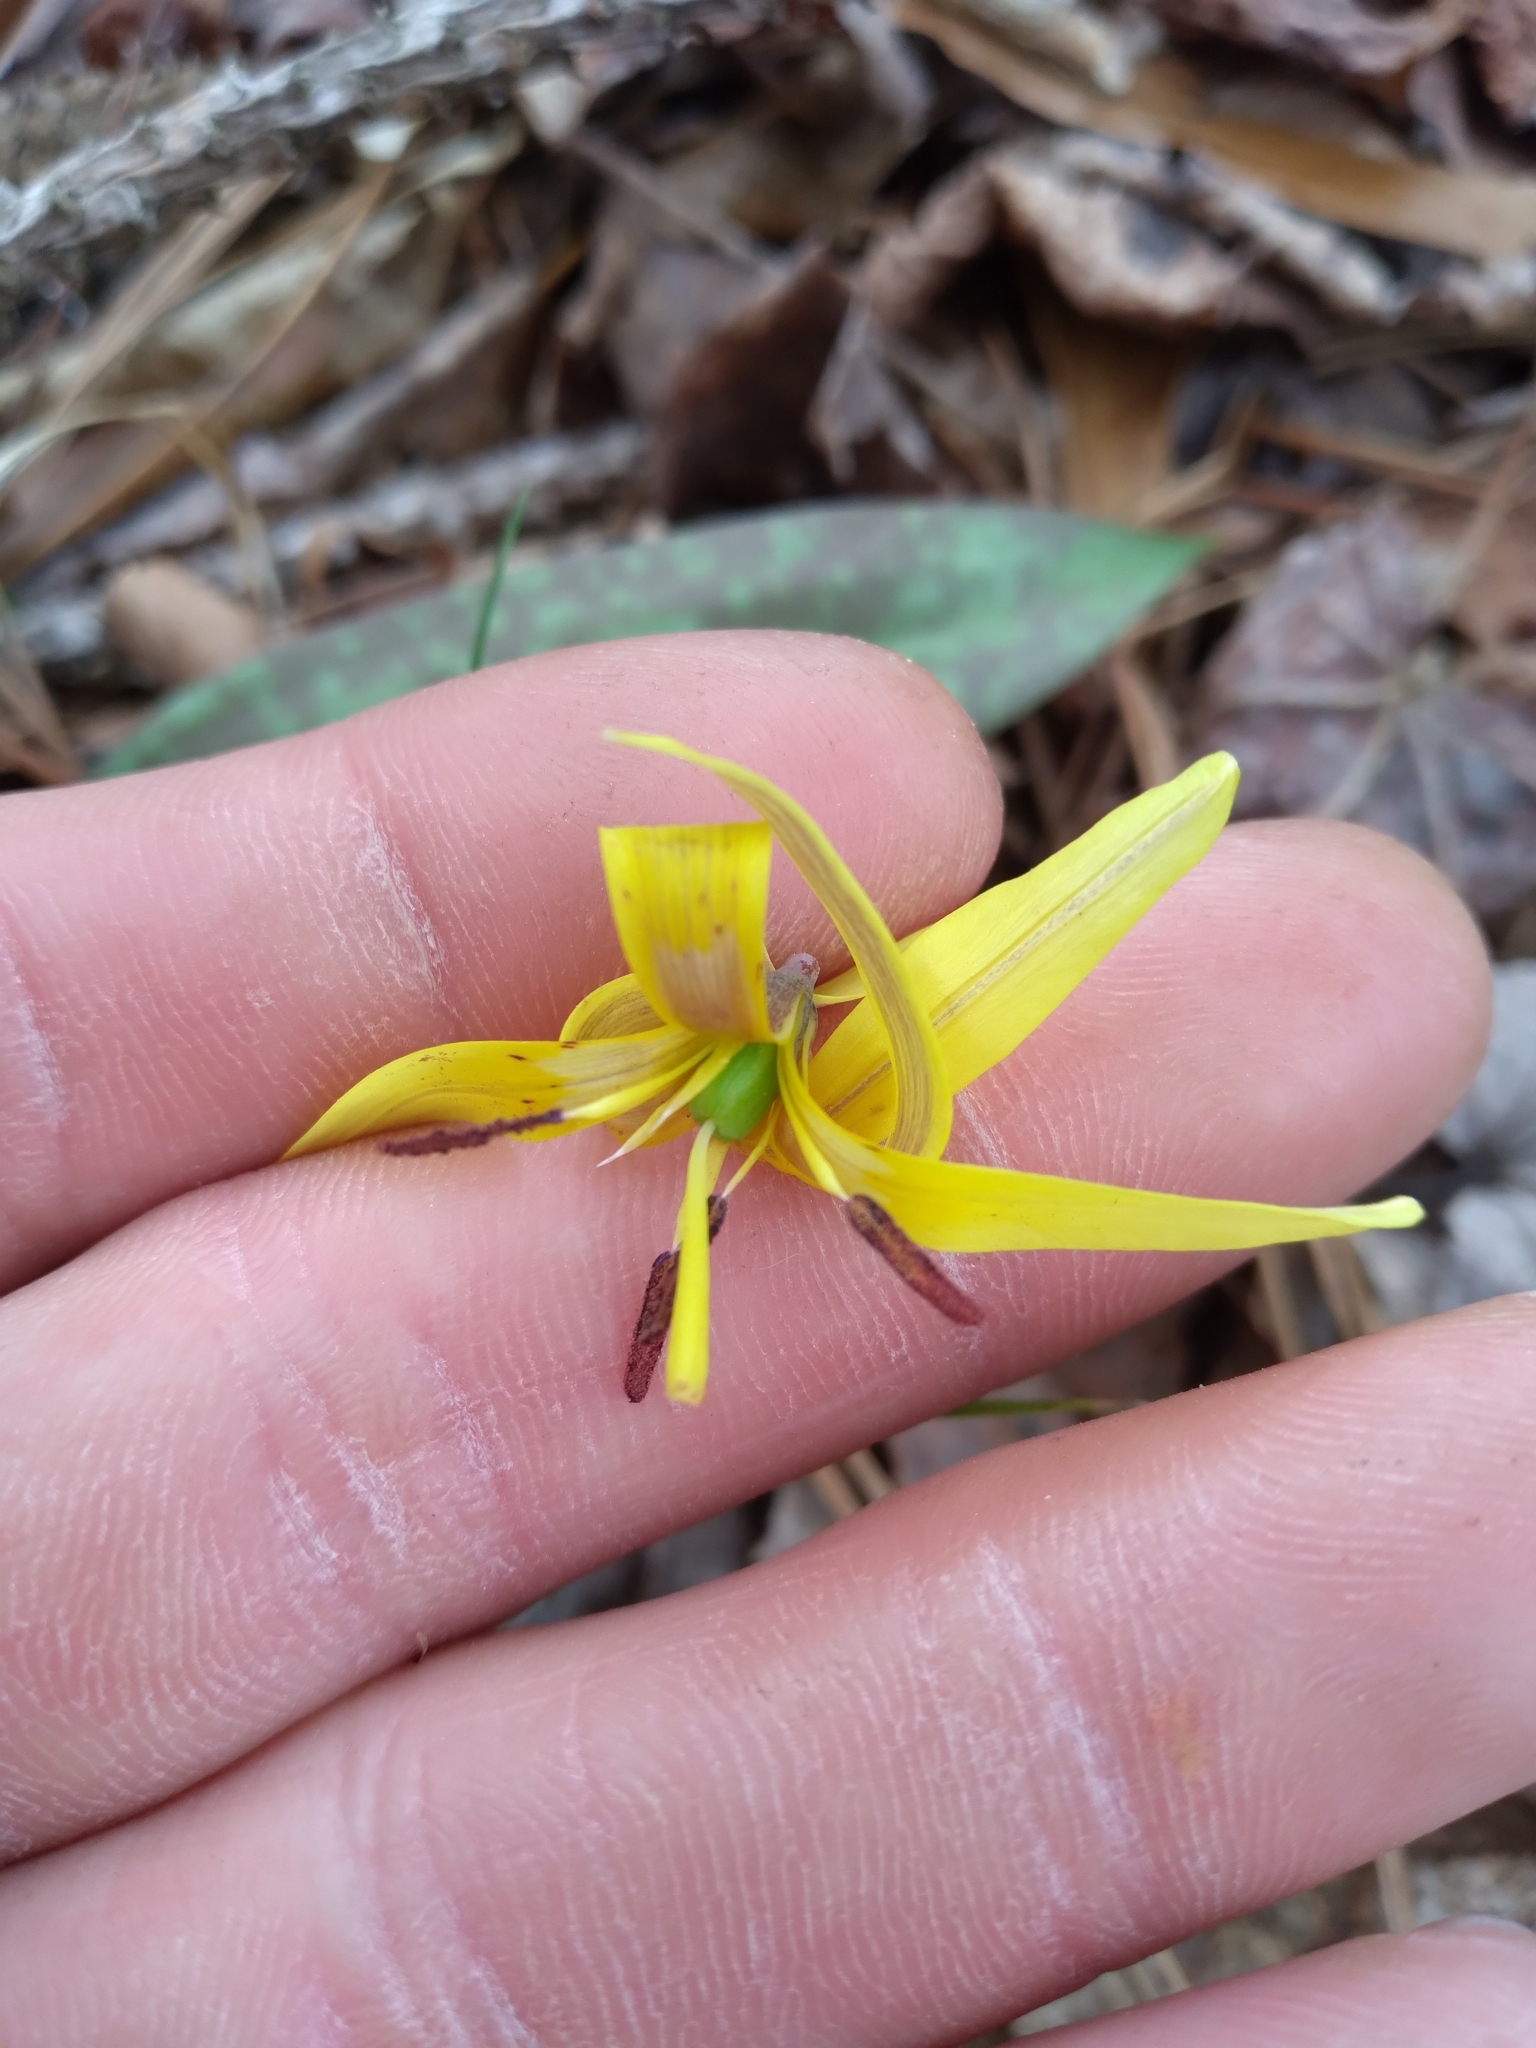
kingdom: Plantae
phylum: Tracheophyta
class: Liliopsida
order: Liliales
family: Liliaceae
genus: Erythronium
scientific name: Erythronium umbilicatum
